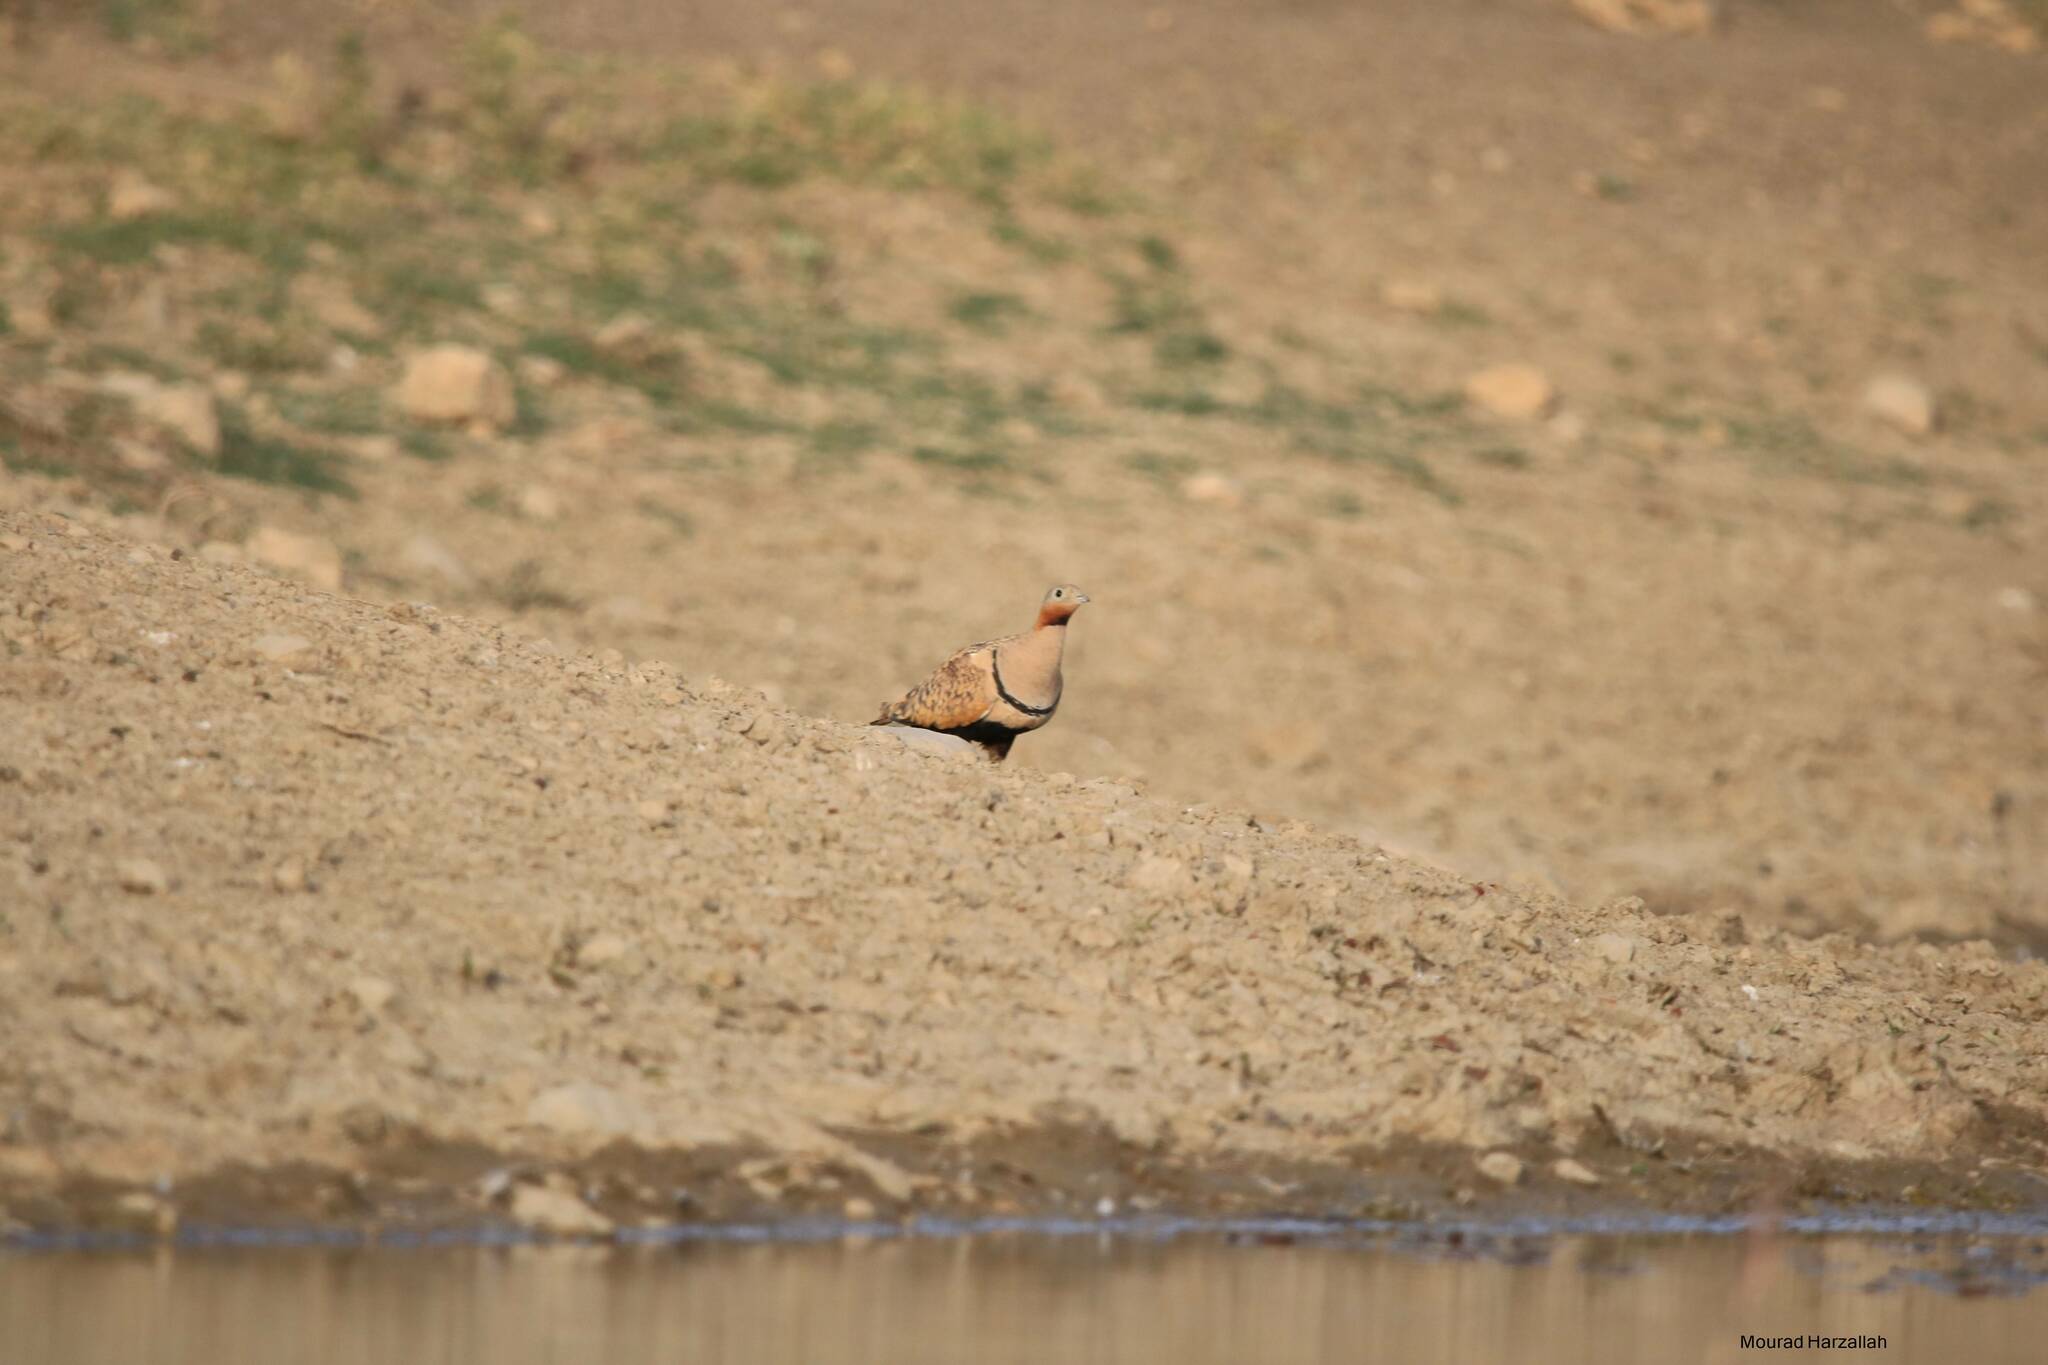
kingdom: Animalia
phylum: Chordata
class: Aves
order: Pteroclidiformes
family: Pteroclididae
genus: Pterocles
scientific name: Pterocles orientalis
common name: Black-bellied sandgrouse
